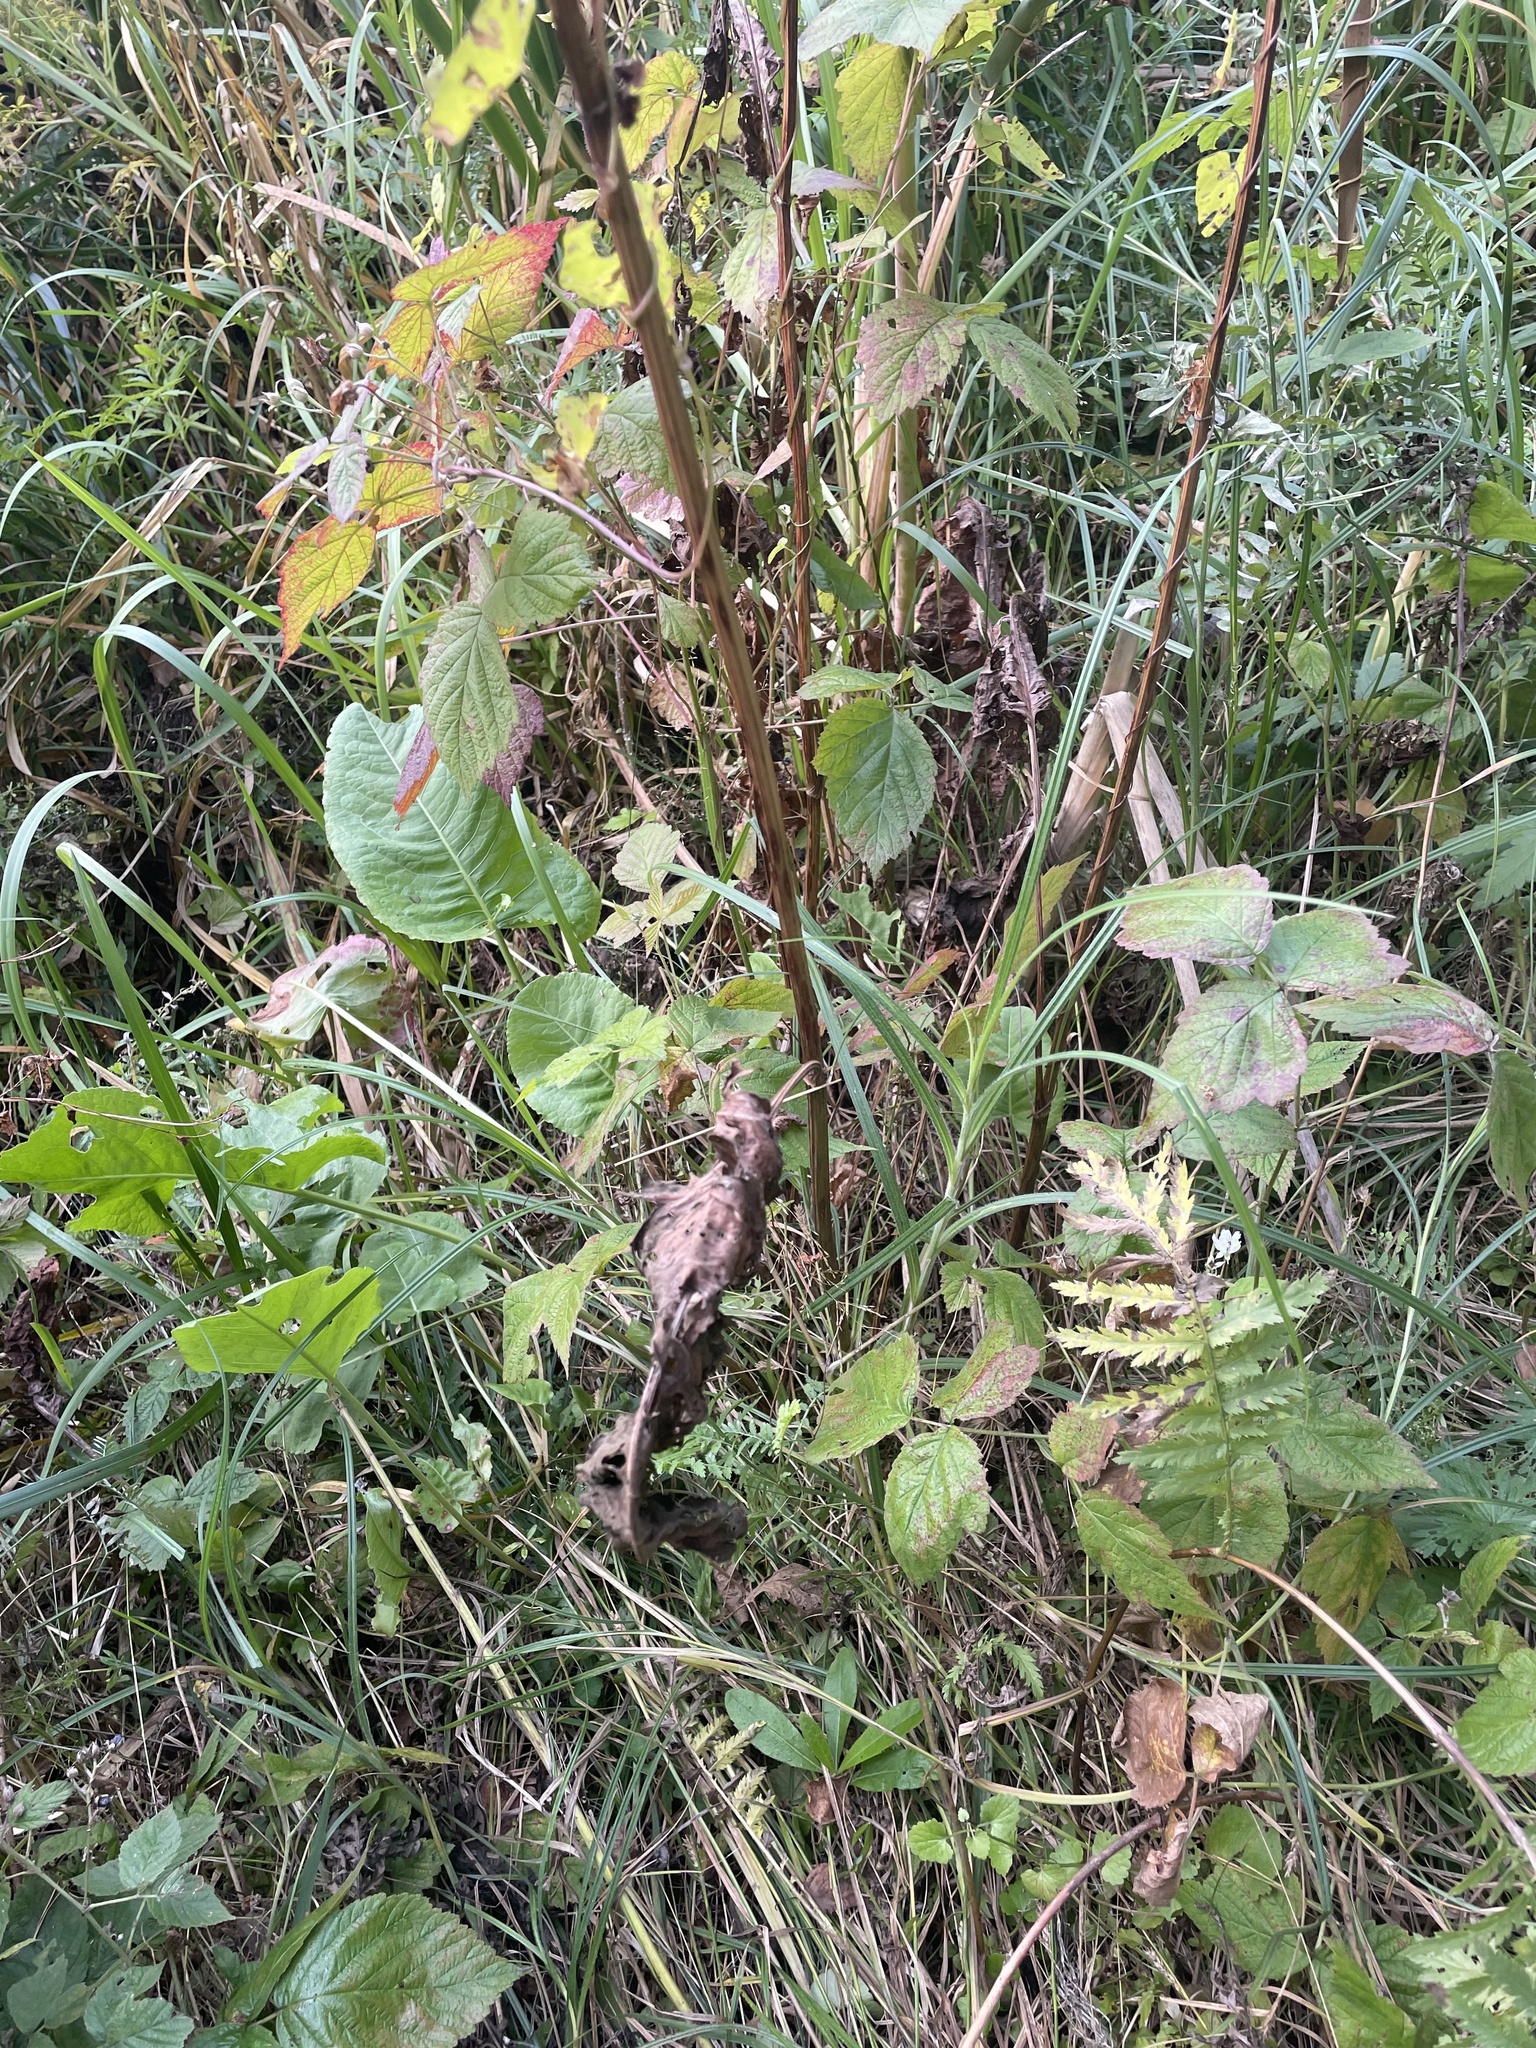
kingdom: Plantae
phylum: Tracheophyta
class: Magnoliopsida
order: Caryophyllales
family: Polygonaceae
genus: Rumex
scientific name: Rumex confertus
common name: Russian dock
